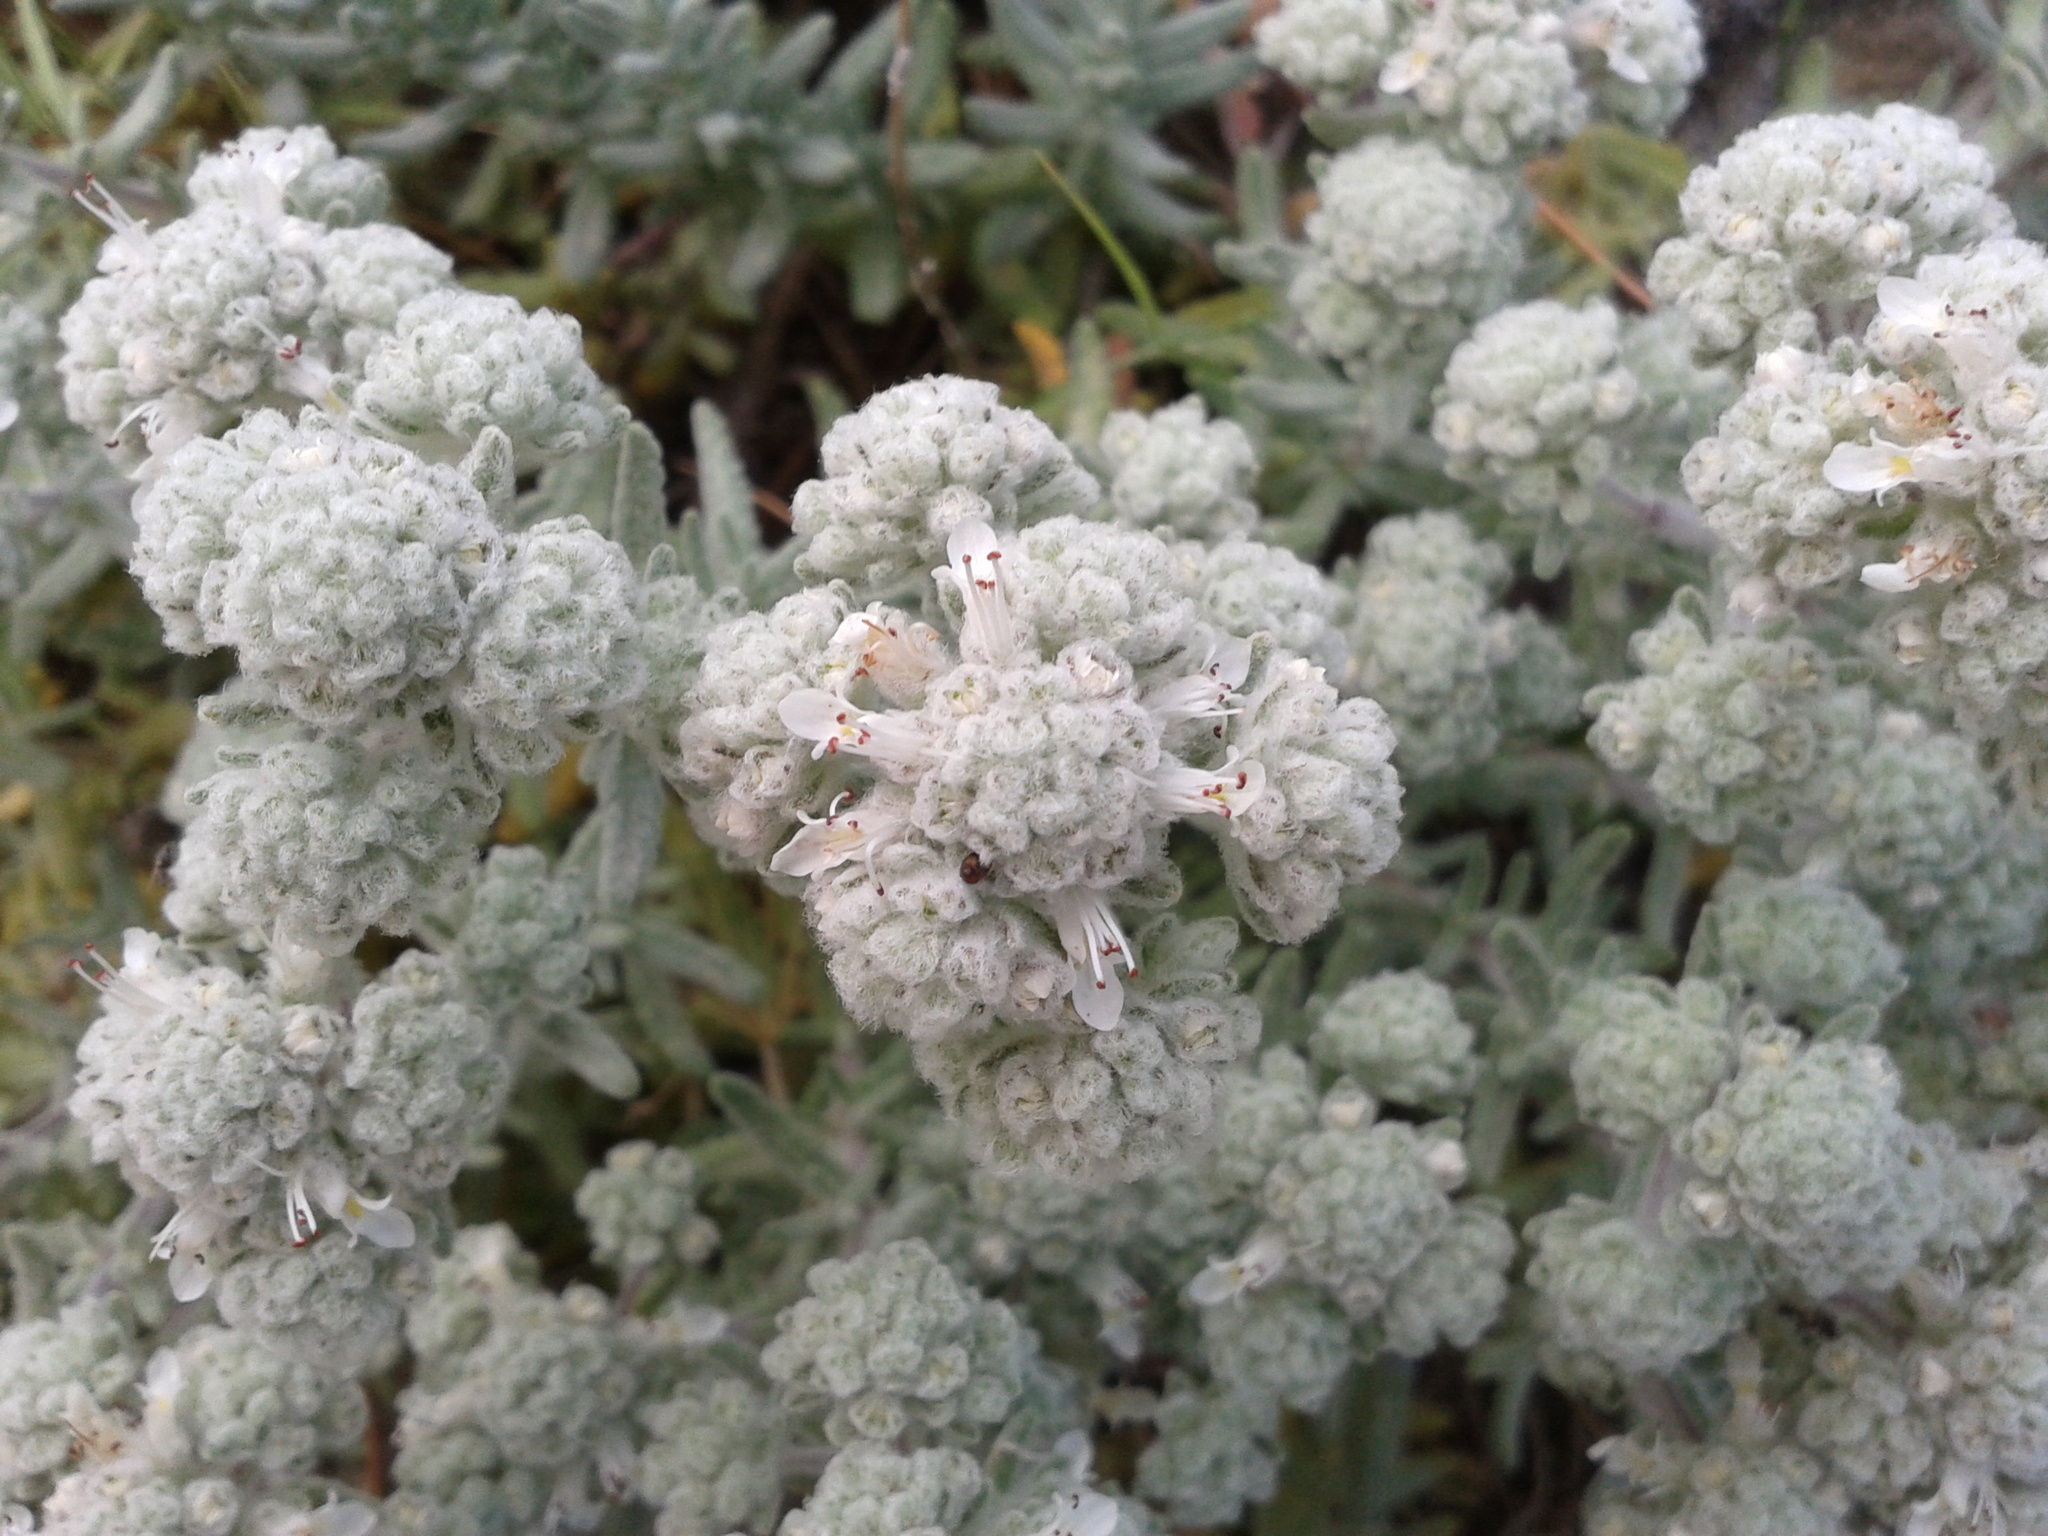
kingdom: Plantae
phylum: Tracheophyta
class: Magnoliopsida
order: Lamiales
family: Lamiaceae
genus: Teucrium
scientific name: Teucrium capitatum
